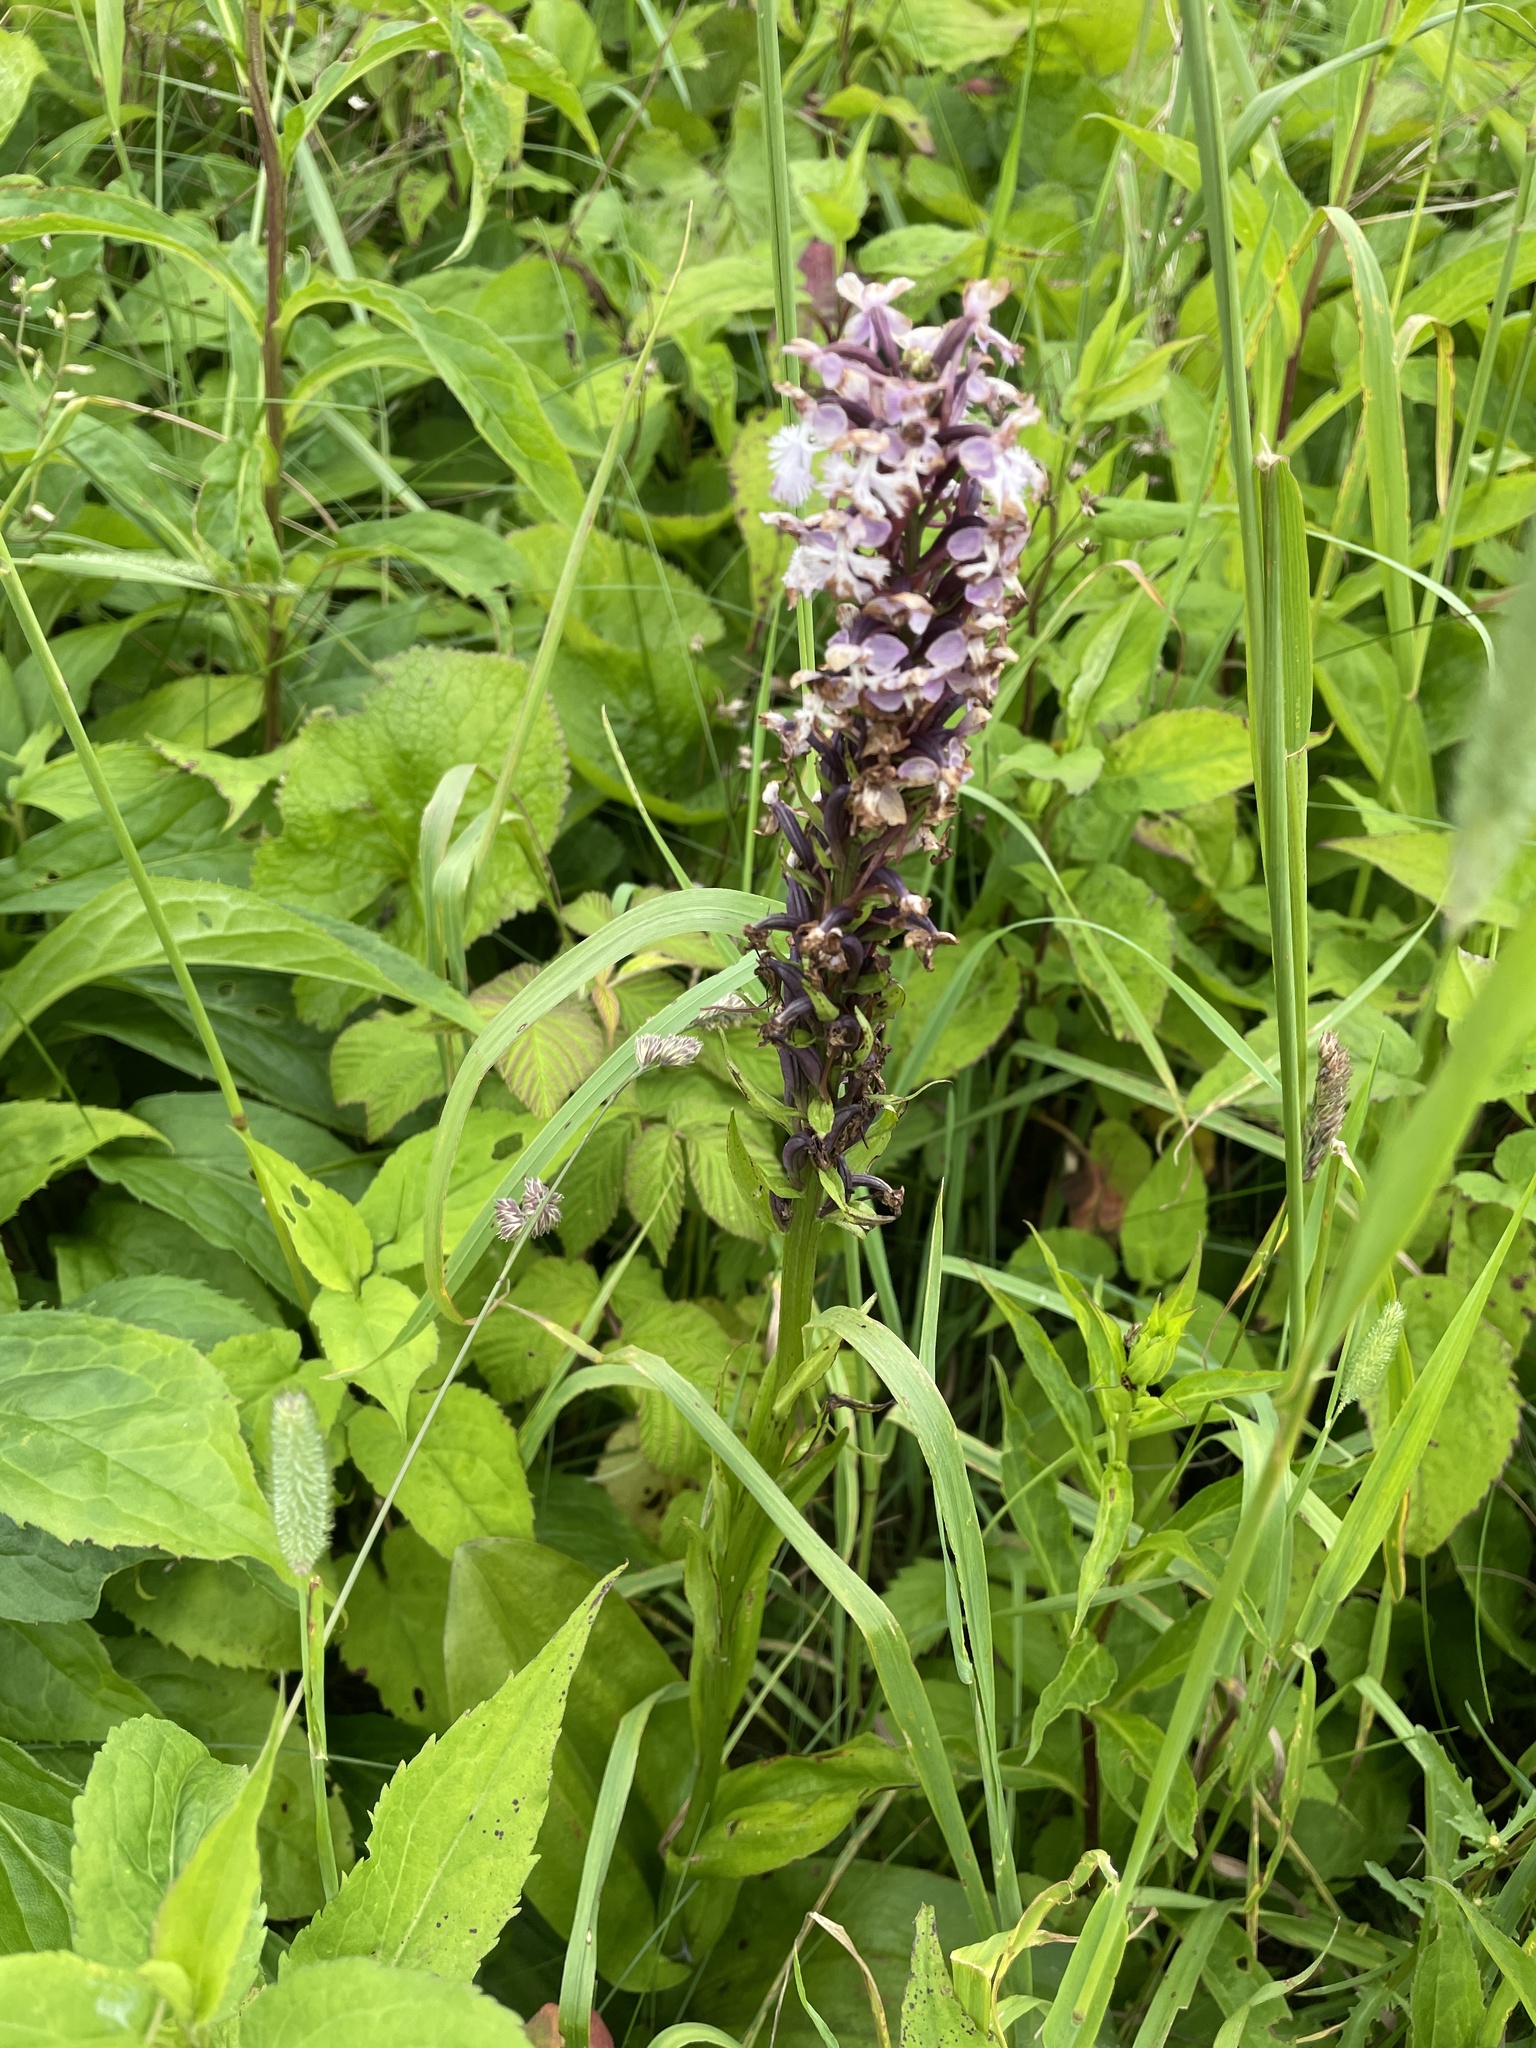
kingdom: Plantae
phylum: Tracheophyta
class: Liliopsida
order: Asparagales
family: Orchidaceae
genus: Platanthera
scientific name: Platanthera psycodes
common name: Lesser purple fringed orchid
